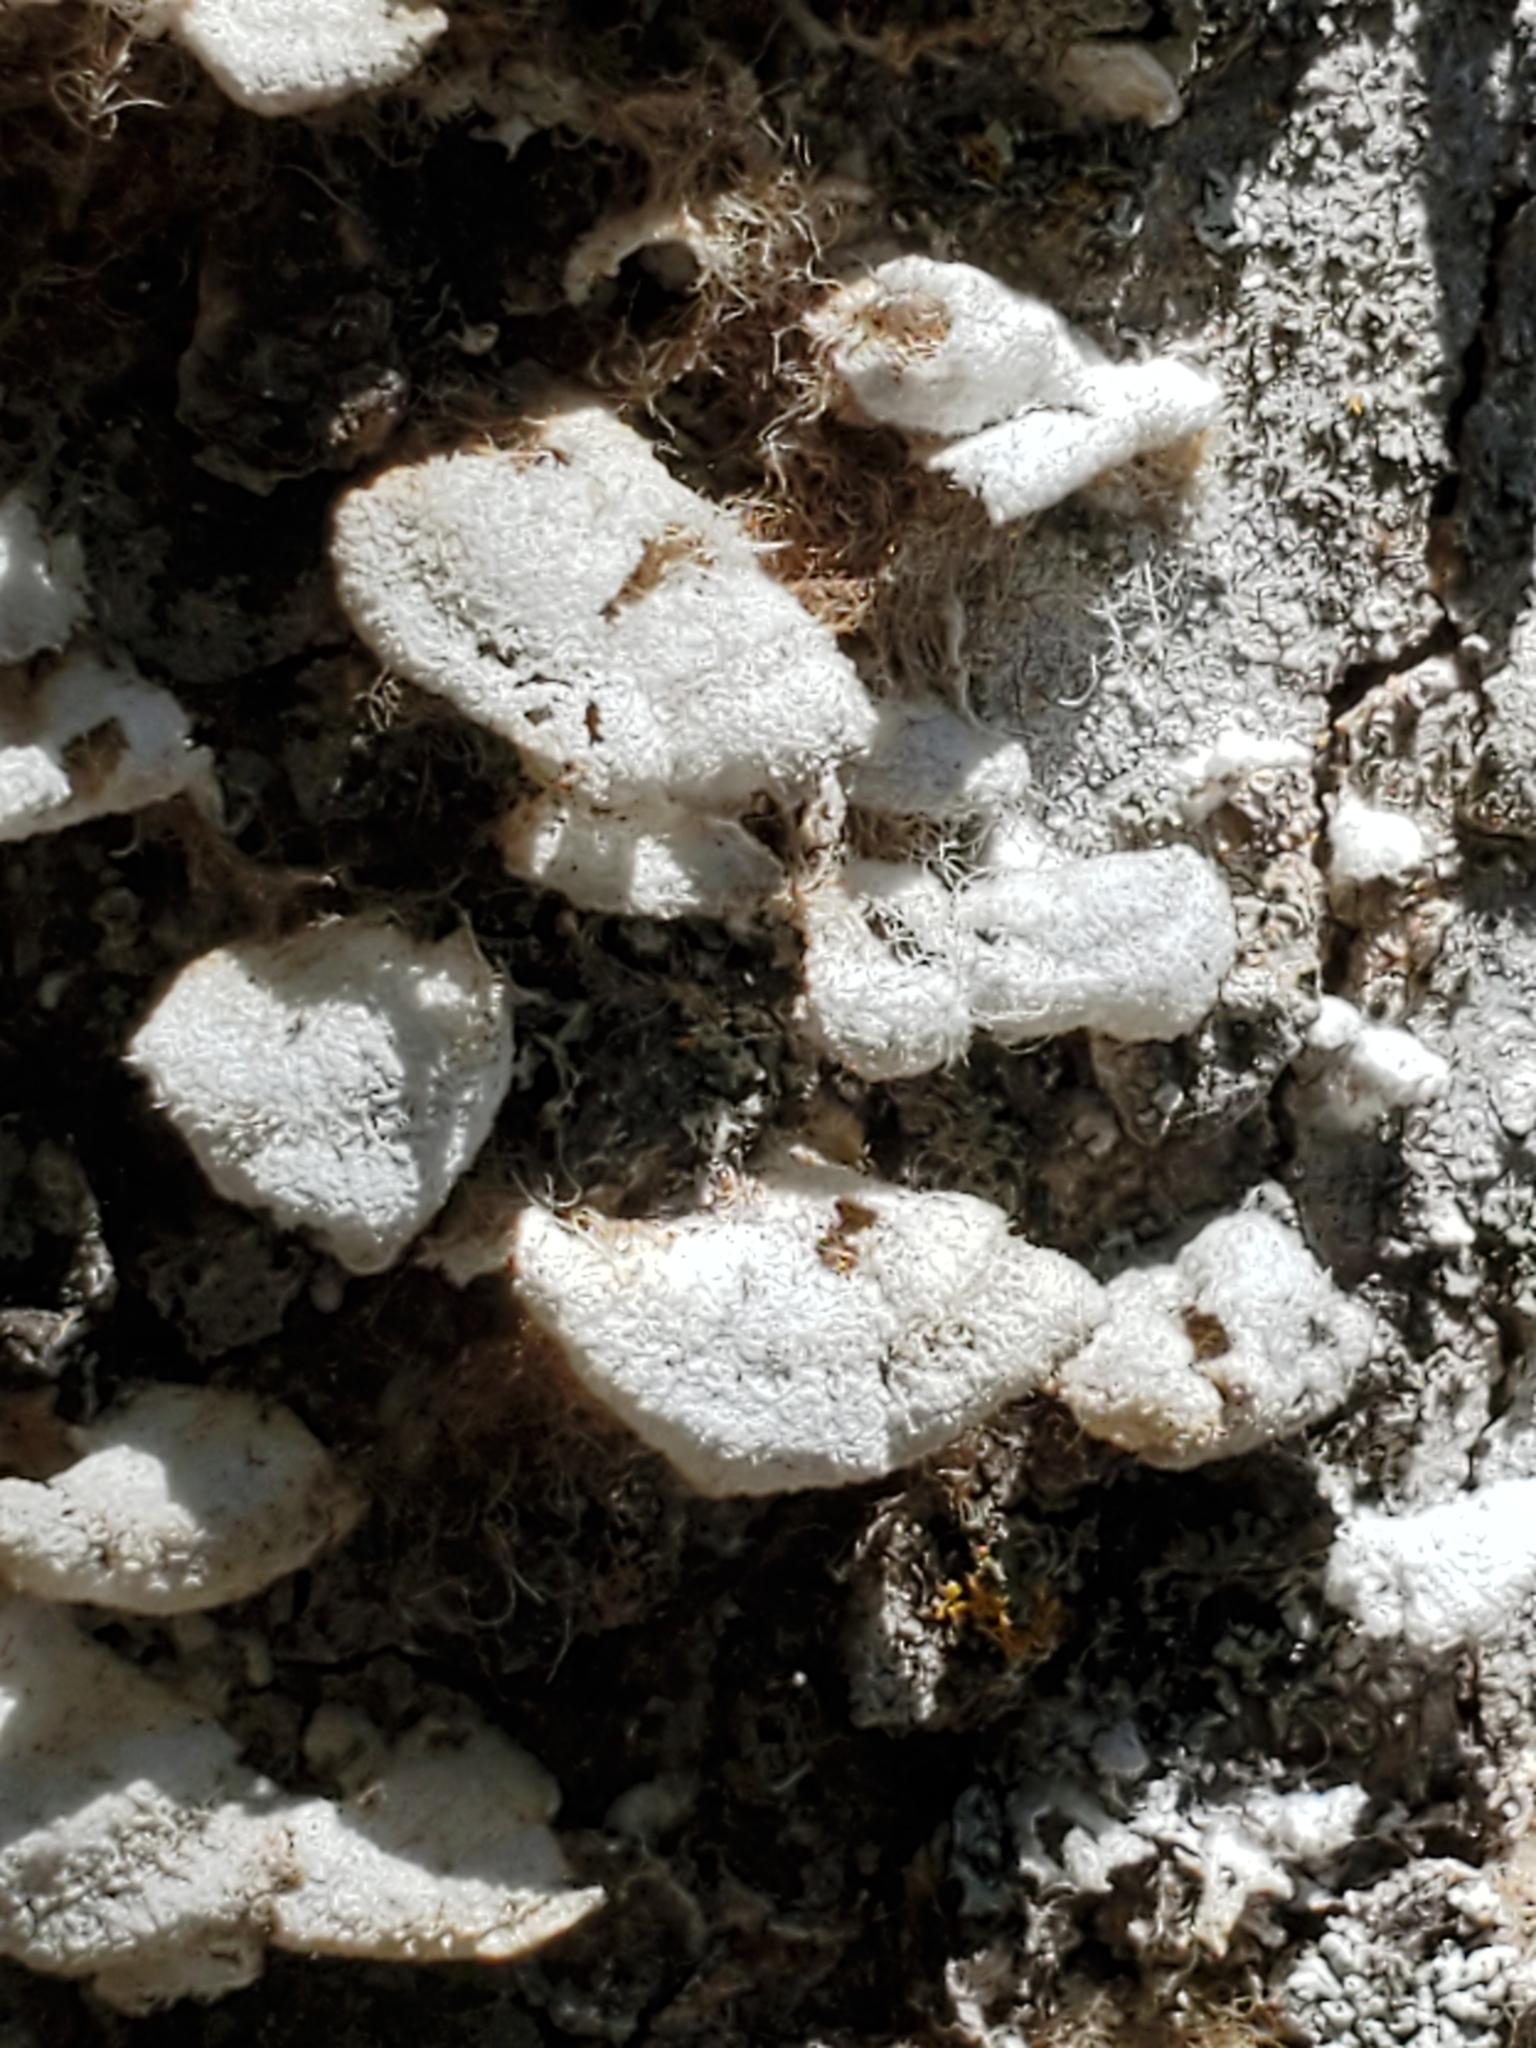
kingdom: Fungi
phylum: Basidiomycota
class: Agaricomycetes
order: Agaricales
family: Schizophyllaceae
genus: Schizophyllum
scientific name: Schizophyllum commune
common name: Common porecrust
